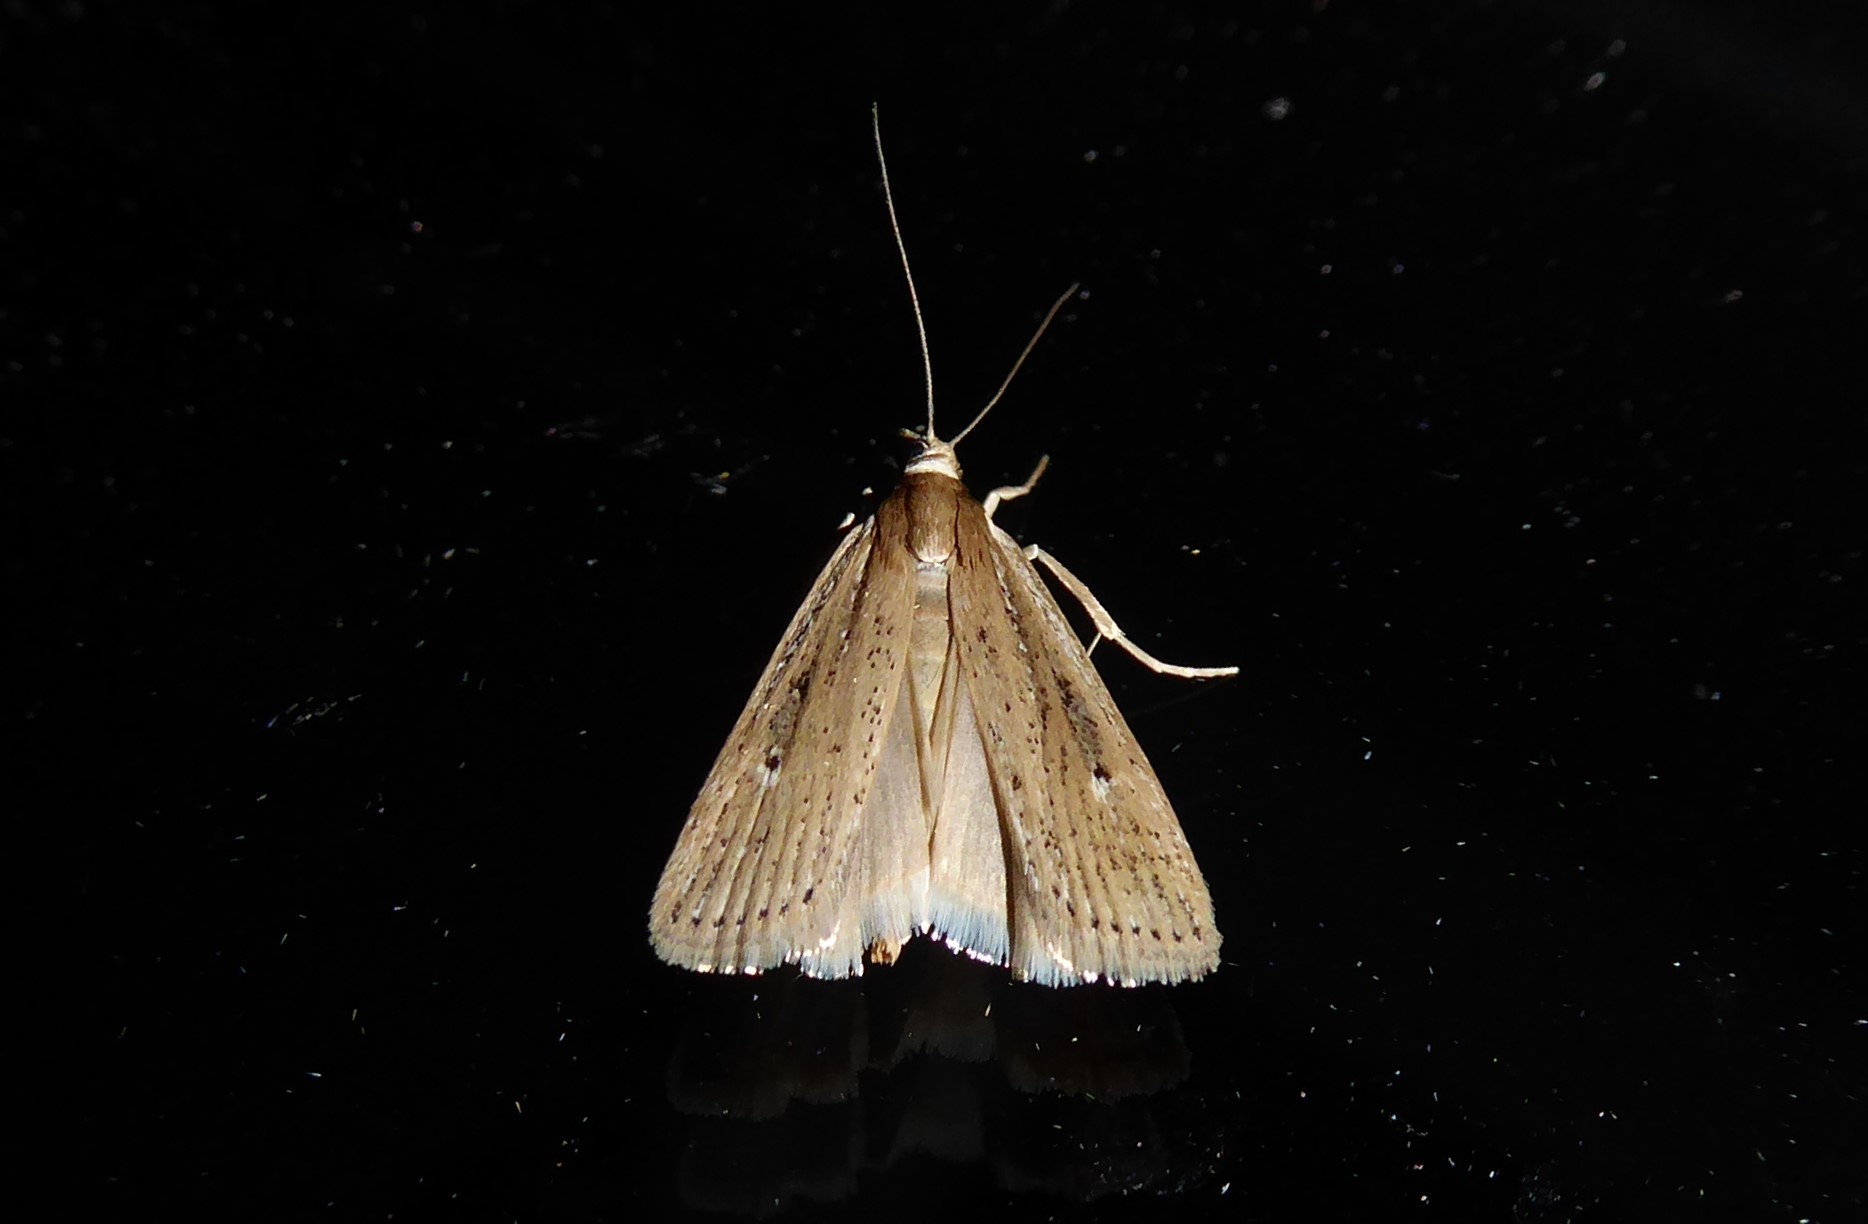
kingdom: Animalia
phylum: Arthropoda
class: Insecta
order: Lepidoptera
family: Crambidae
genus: Eudonia
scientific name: Eudonia sabulosella
